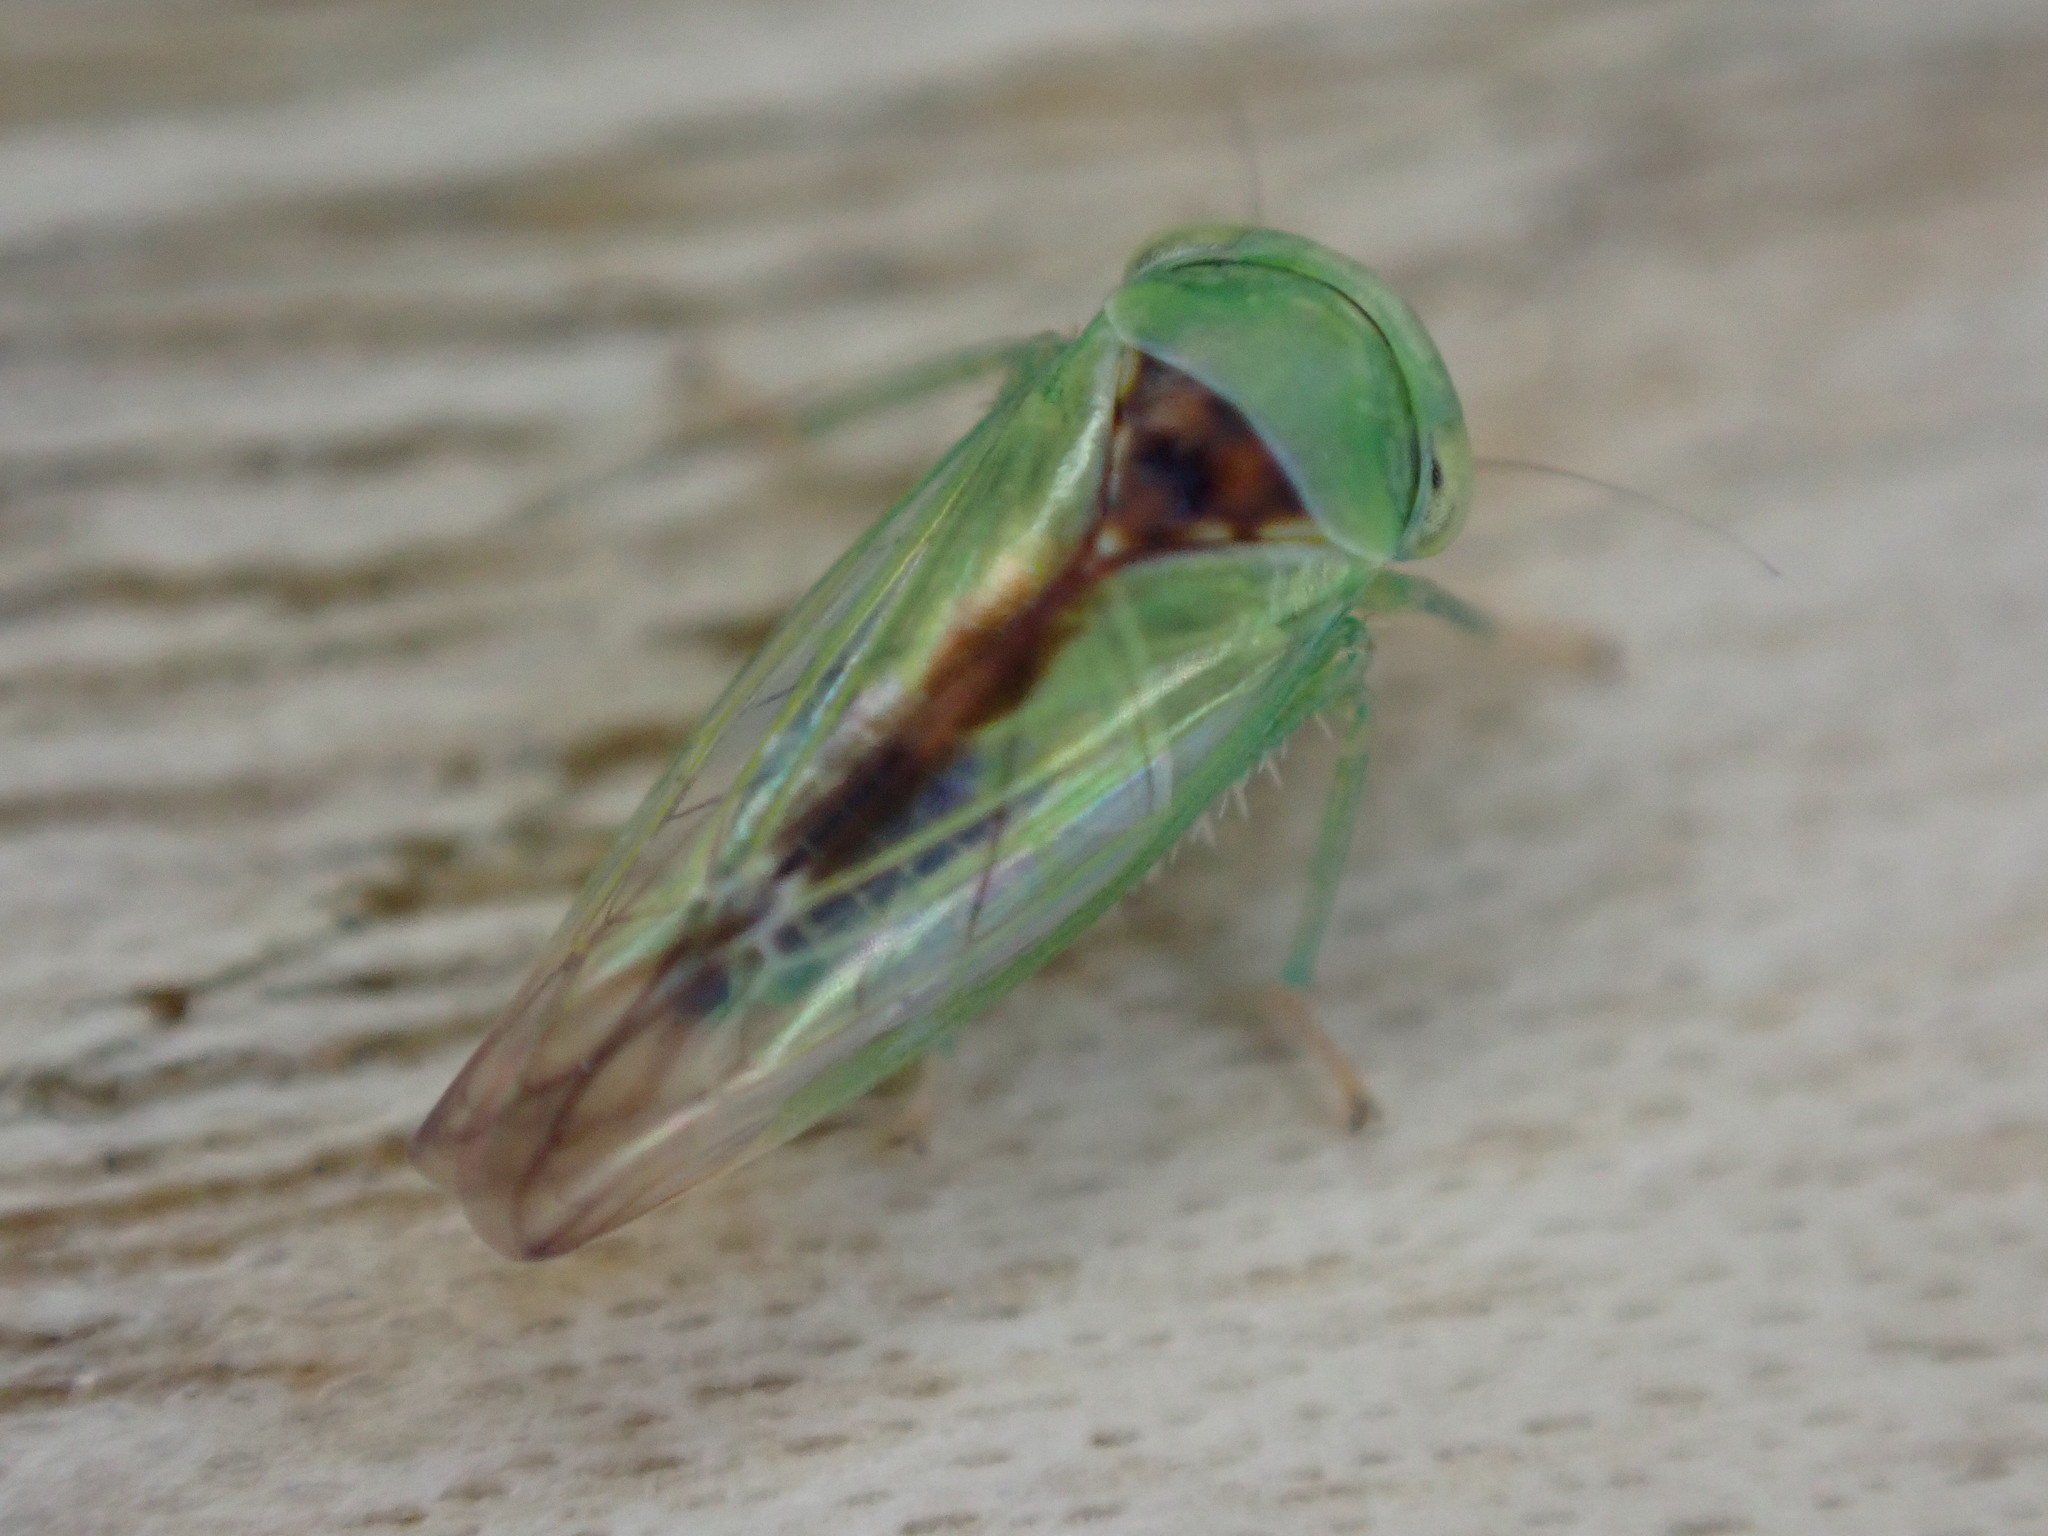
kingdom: Animalia
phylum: Arthropoda
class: Insecta
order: Hemiptera
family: Cicadellidae
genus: Viridicerus
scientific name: Viridicerus ustulatus
